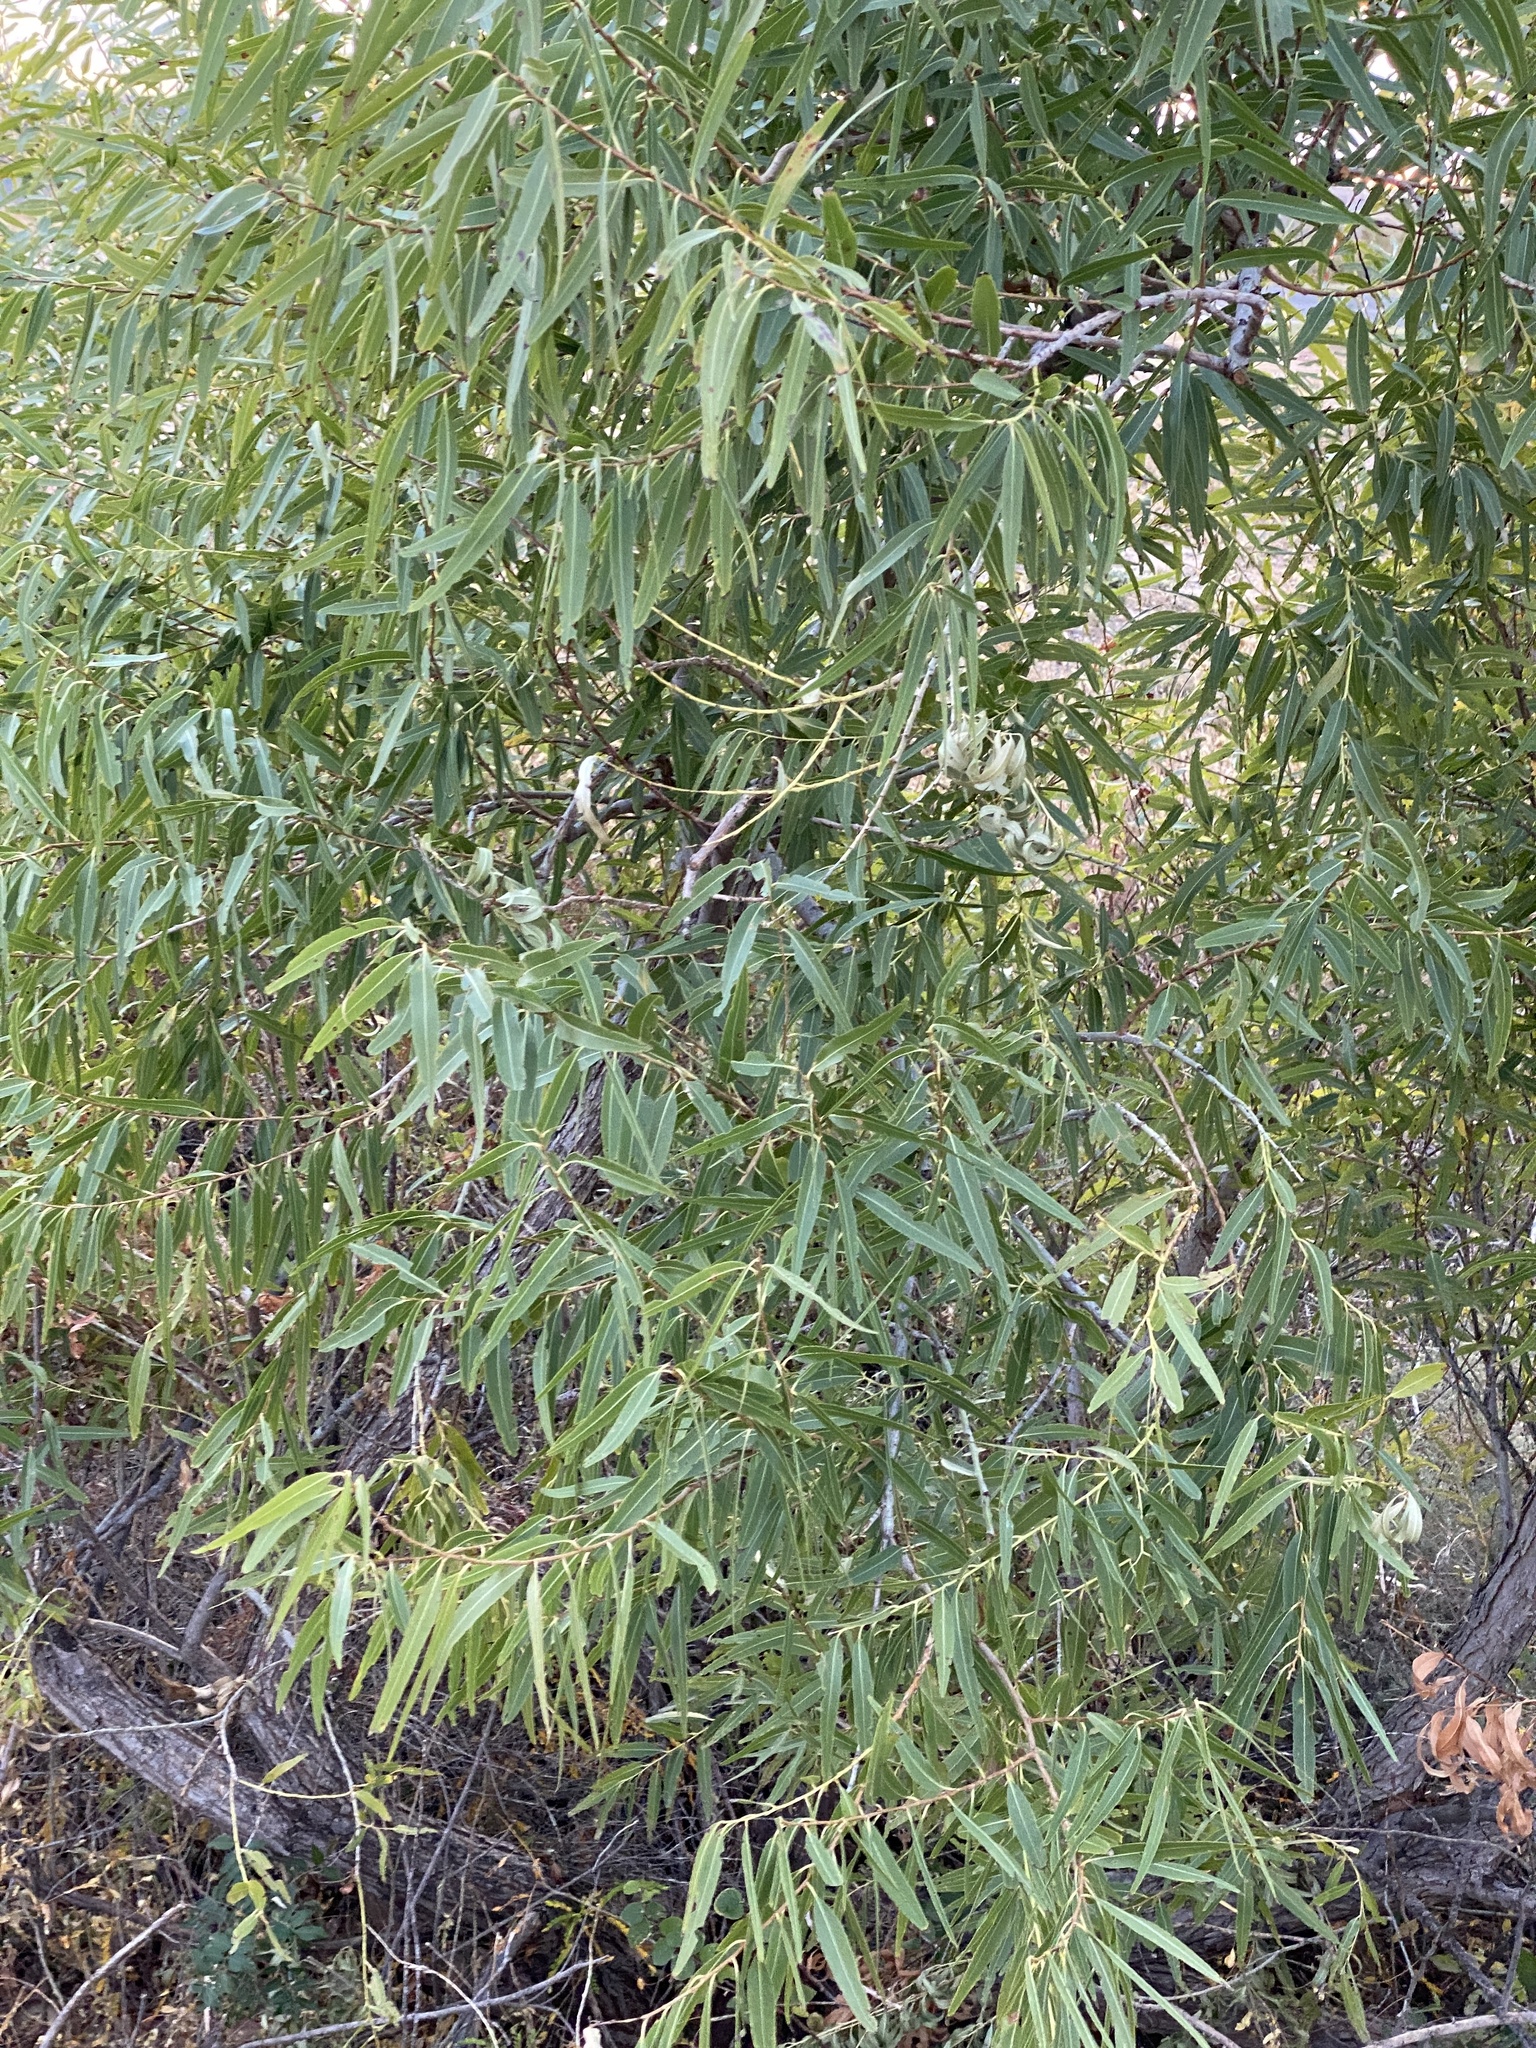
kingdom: Plantae
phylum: Tracheophyta
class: Magnoliopsida
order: Malpighiales
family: Salicaceae
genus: Salix
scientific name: Salix nigra
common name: Black willow
